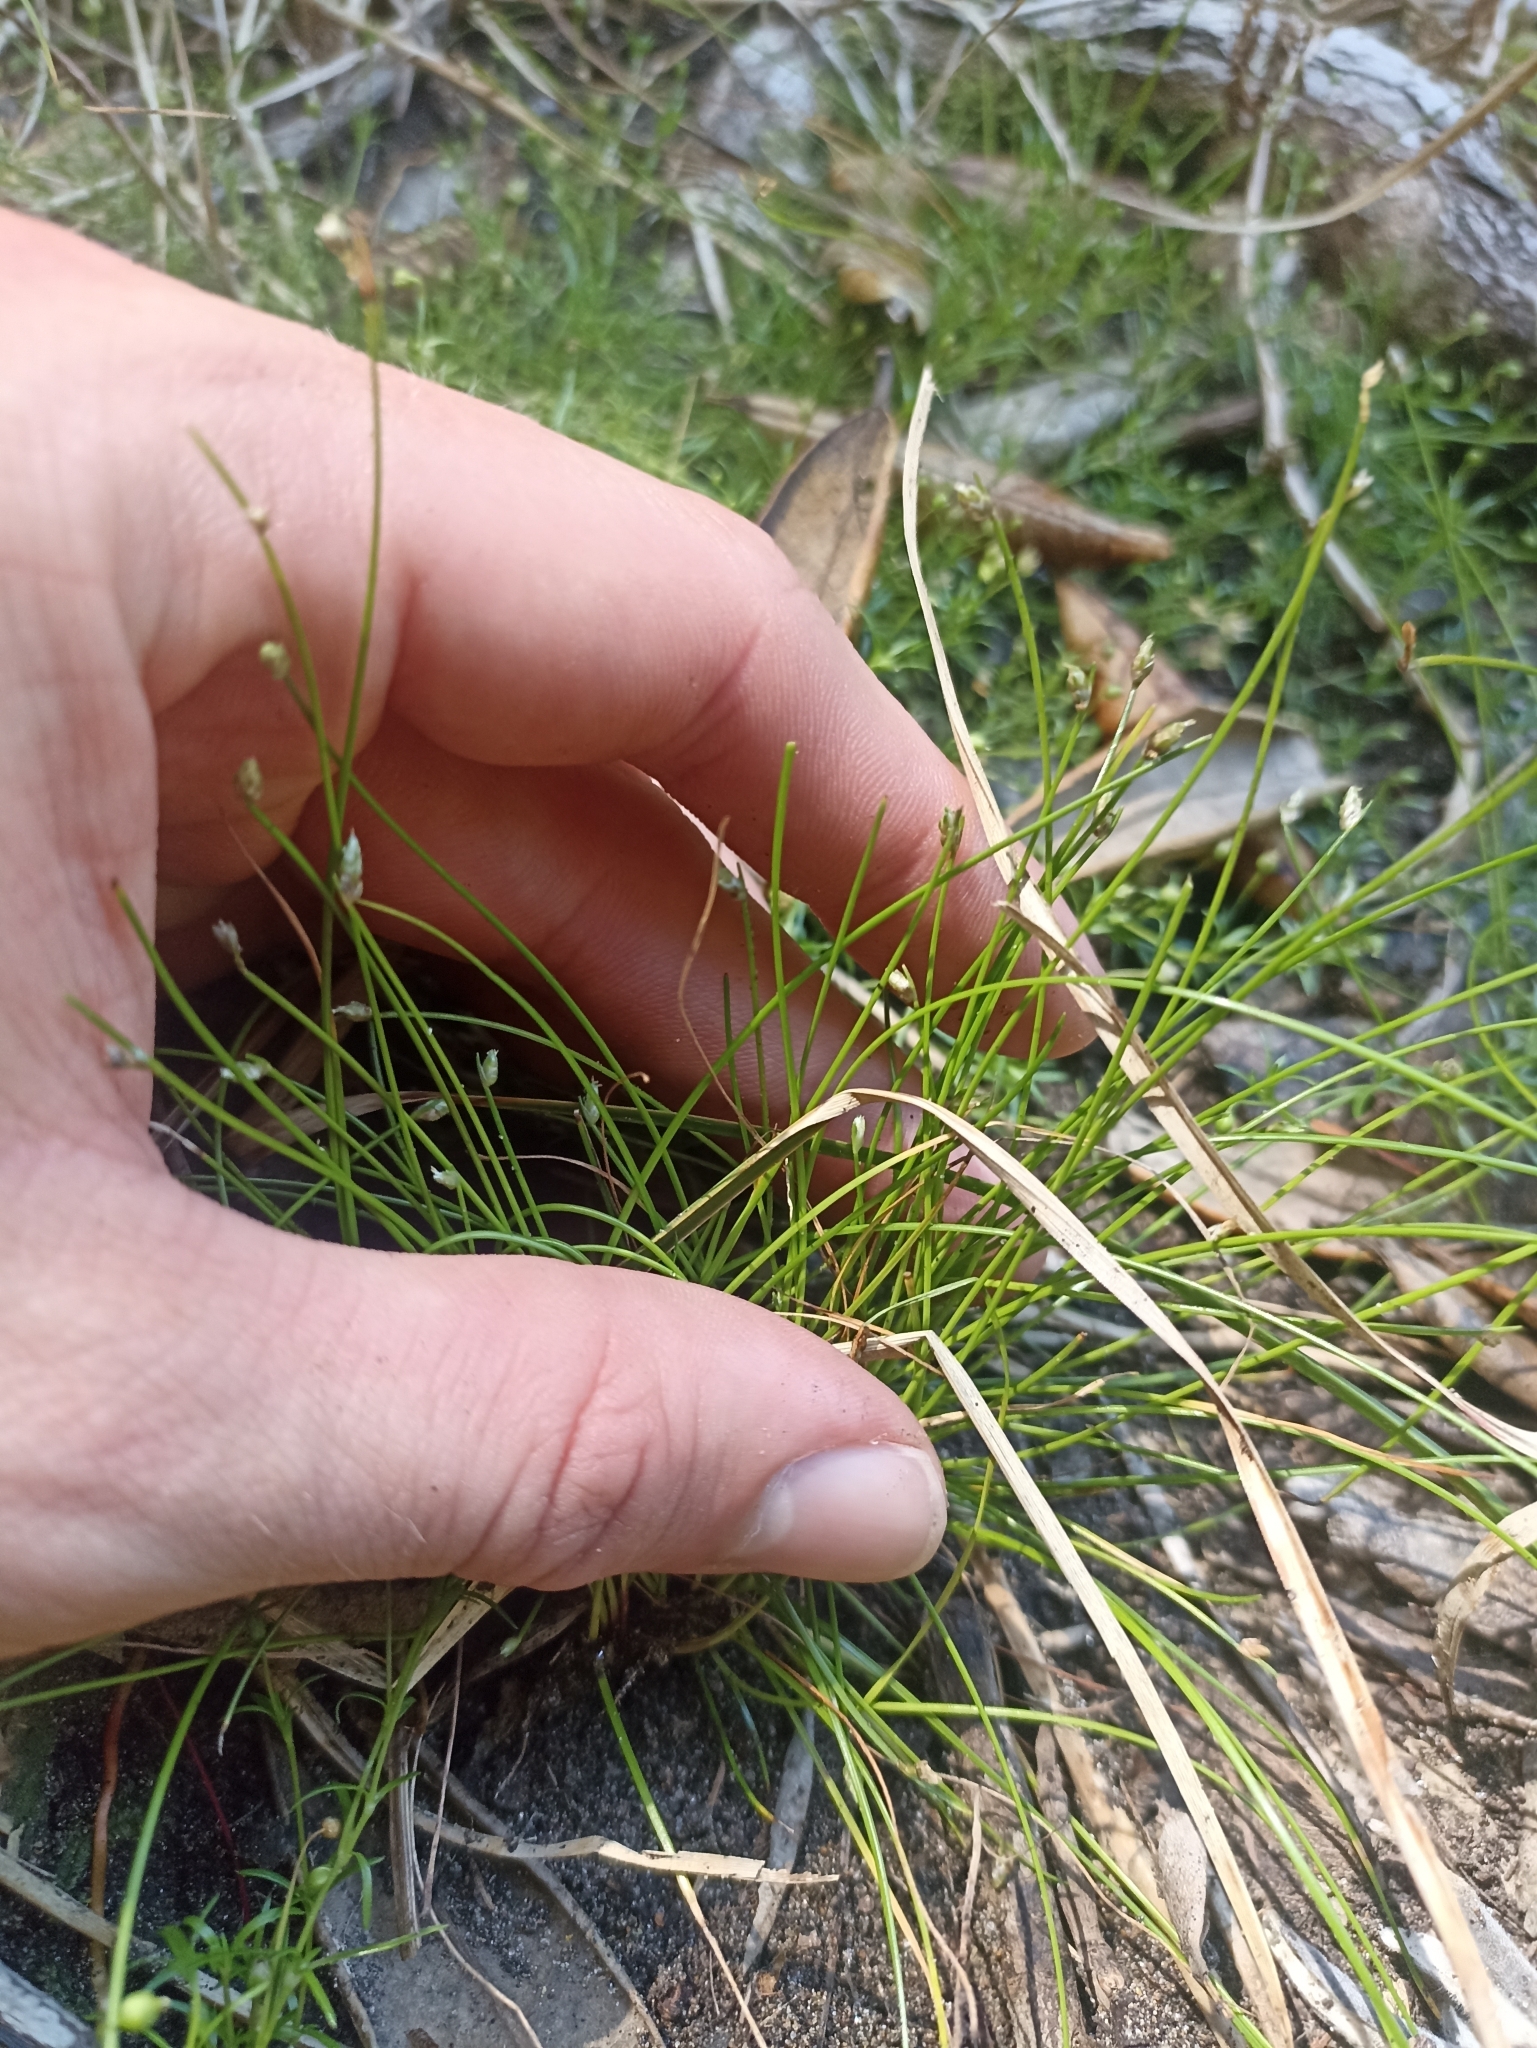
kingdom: Plantae
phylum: Tracheophyta
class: Liliopsida
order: Poales
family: Cyperaceae
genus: Isolepis
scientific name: Isolepis cernua
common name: Slender club-rush
